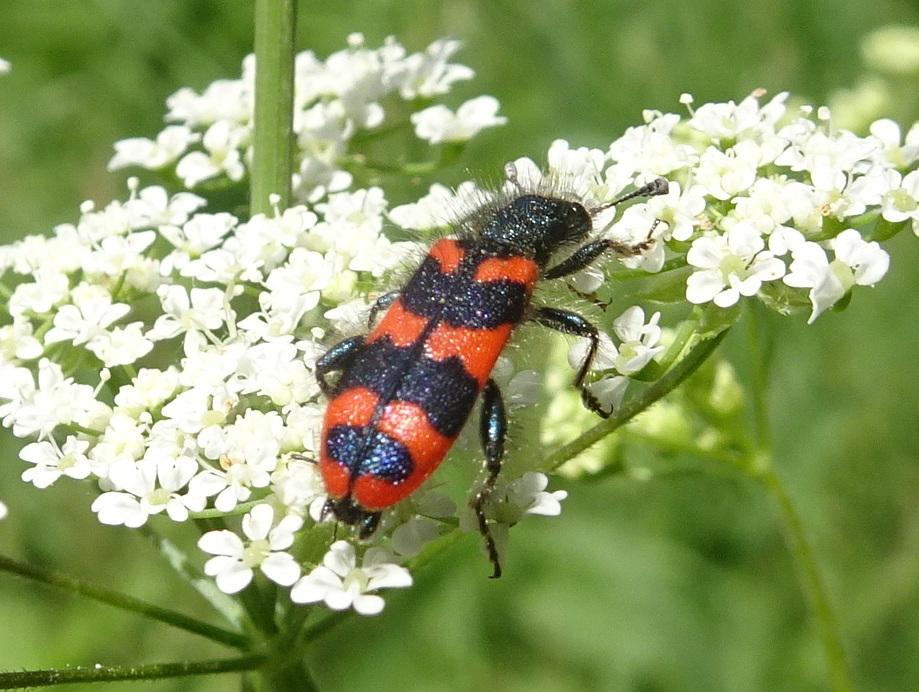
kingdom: Animalia
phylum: Arthropoda
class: Insecta
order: Coleoptera
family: Cleridae
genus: Trichodes
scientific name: Trichodes alvearius
